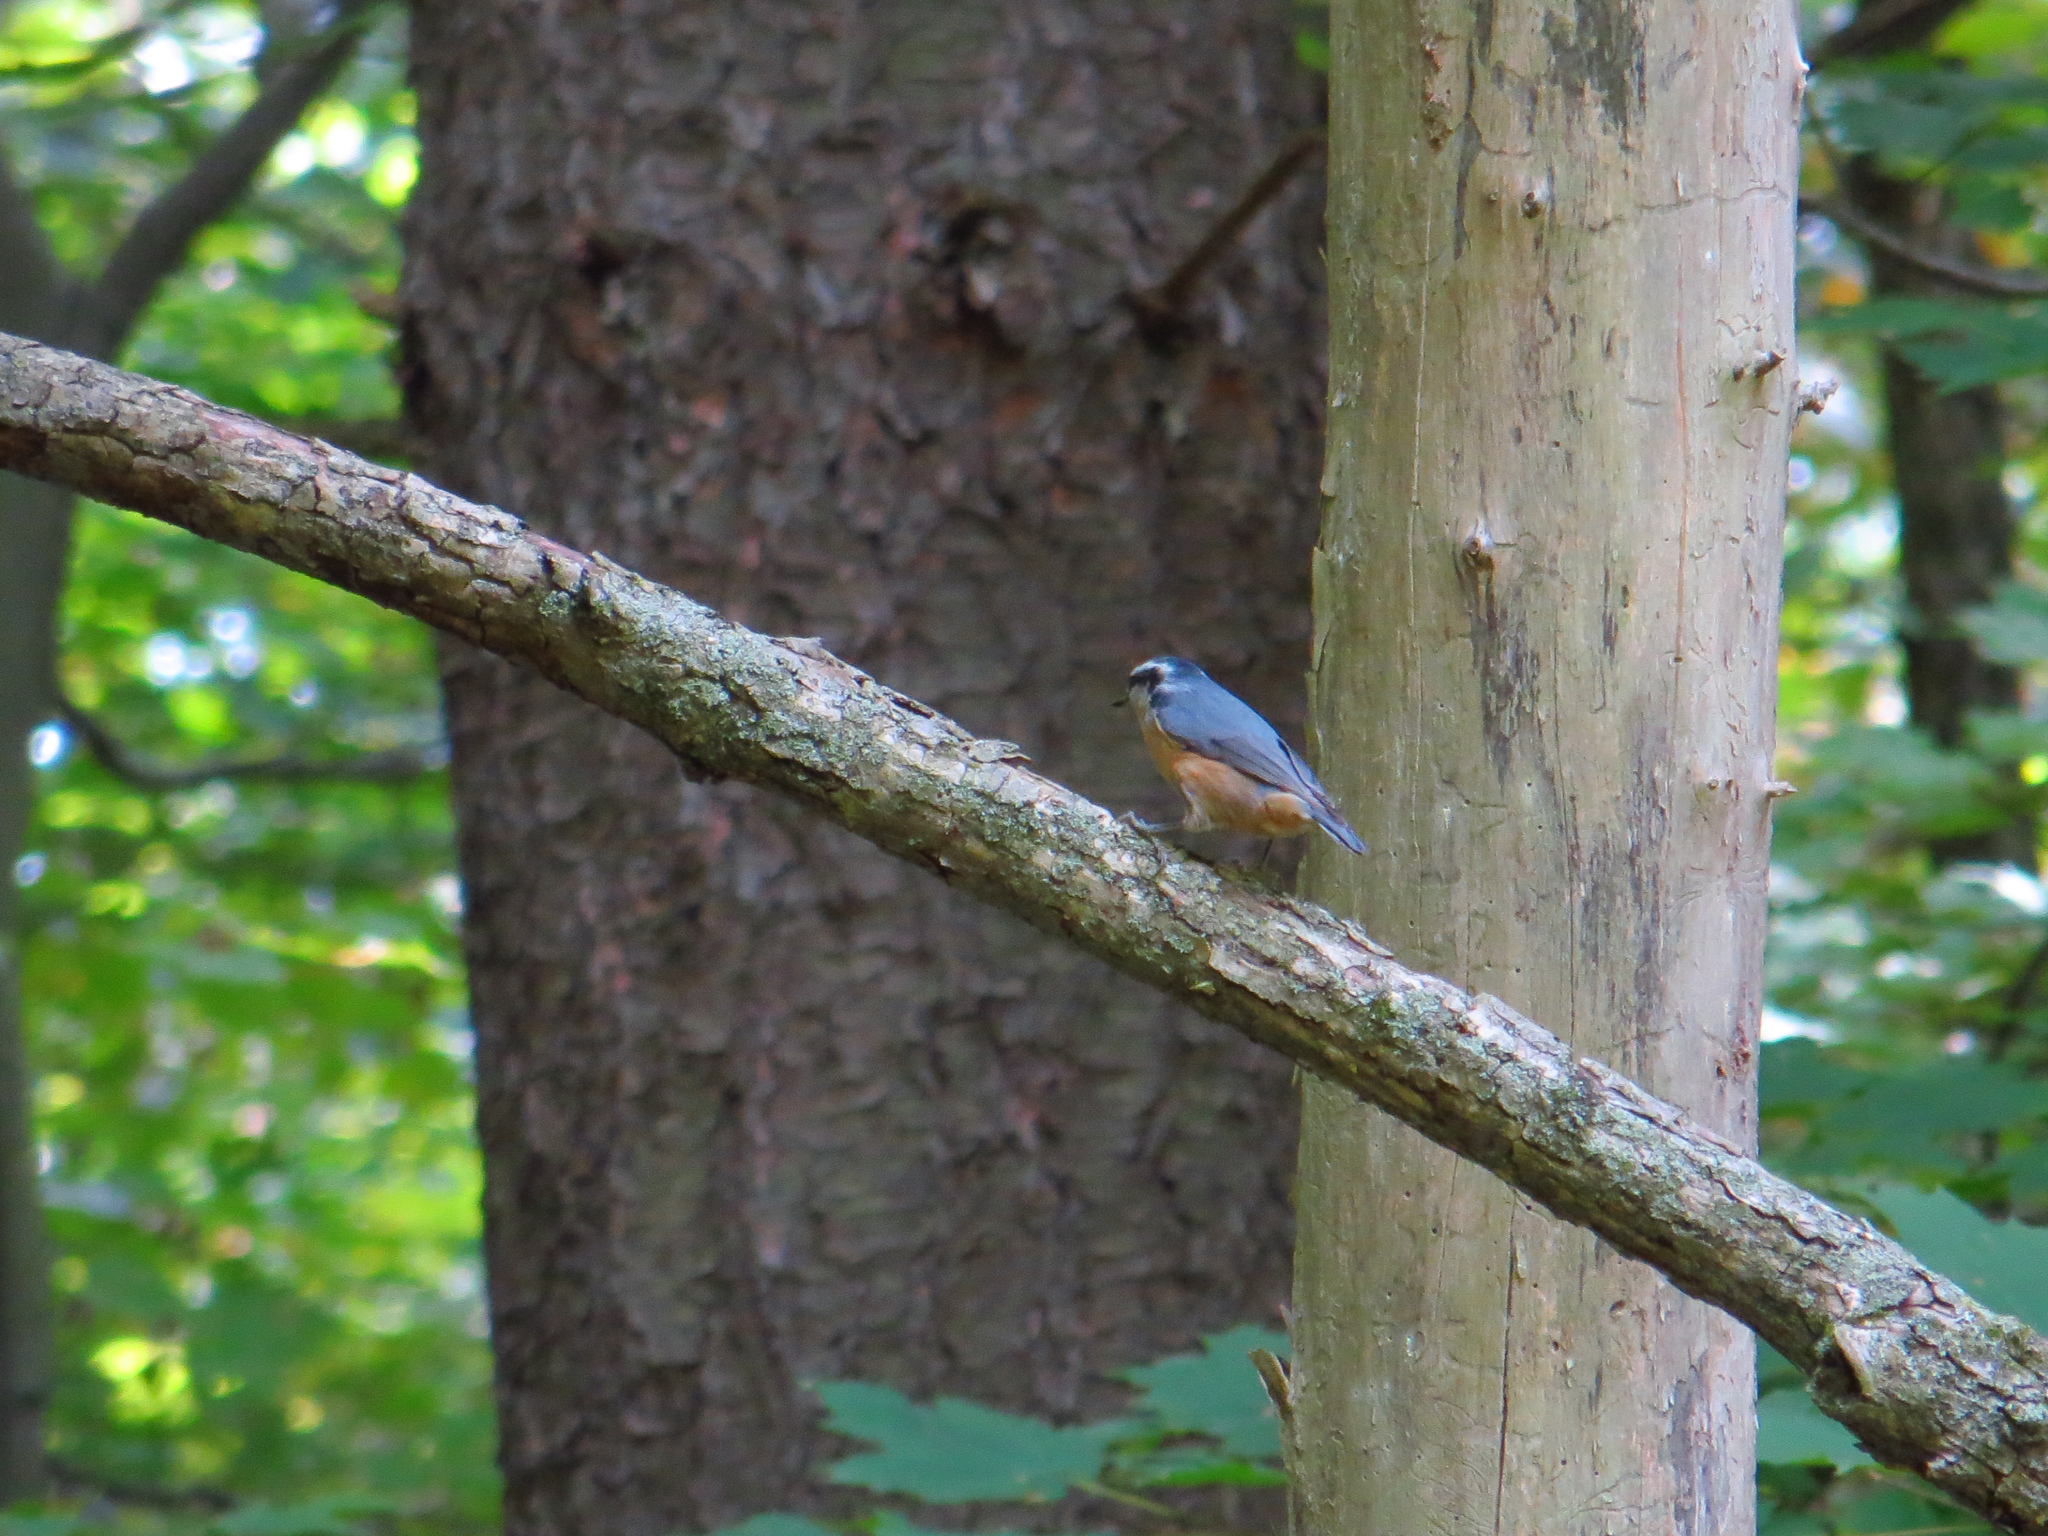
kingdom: Animalia
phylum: Chordata
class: Aves
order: Passeriformes
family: Sittidae
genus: Sitta
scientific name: Sitta canadensis
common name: Red-breasted nuthatch
